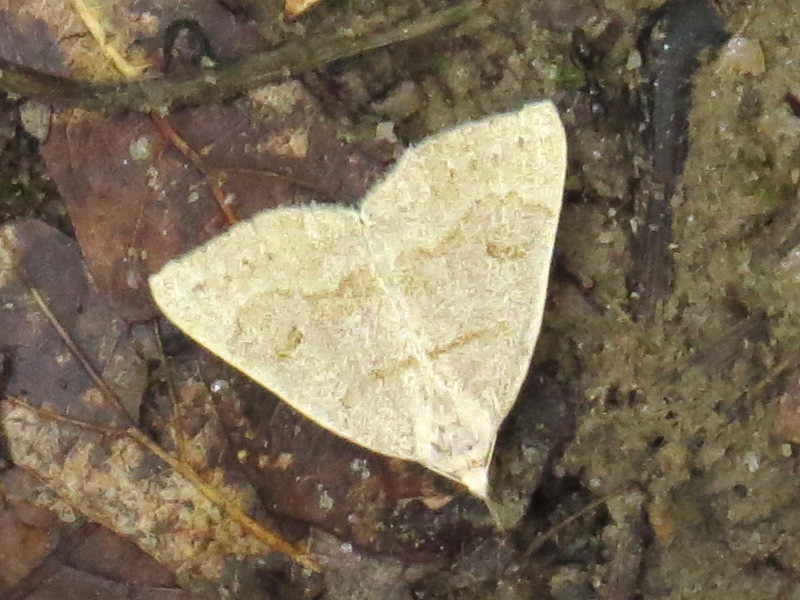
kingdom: Animalia
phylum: Arthropoda
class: Insecta
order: Lepidoptera
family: Erebidae
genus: Macrochilo
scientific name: Macrochilo morbidalis
